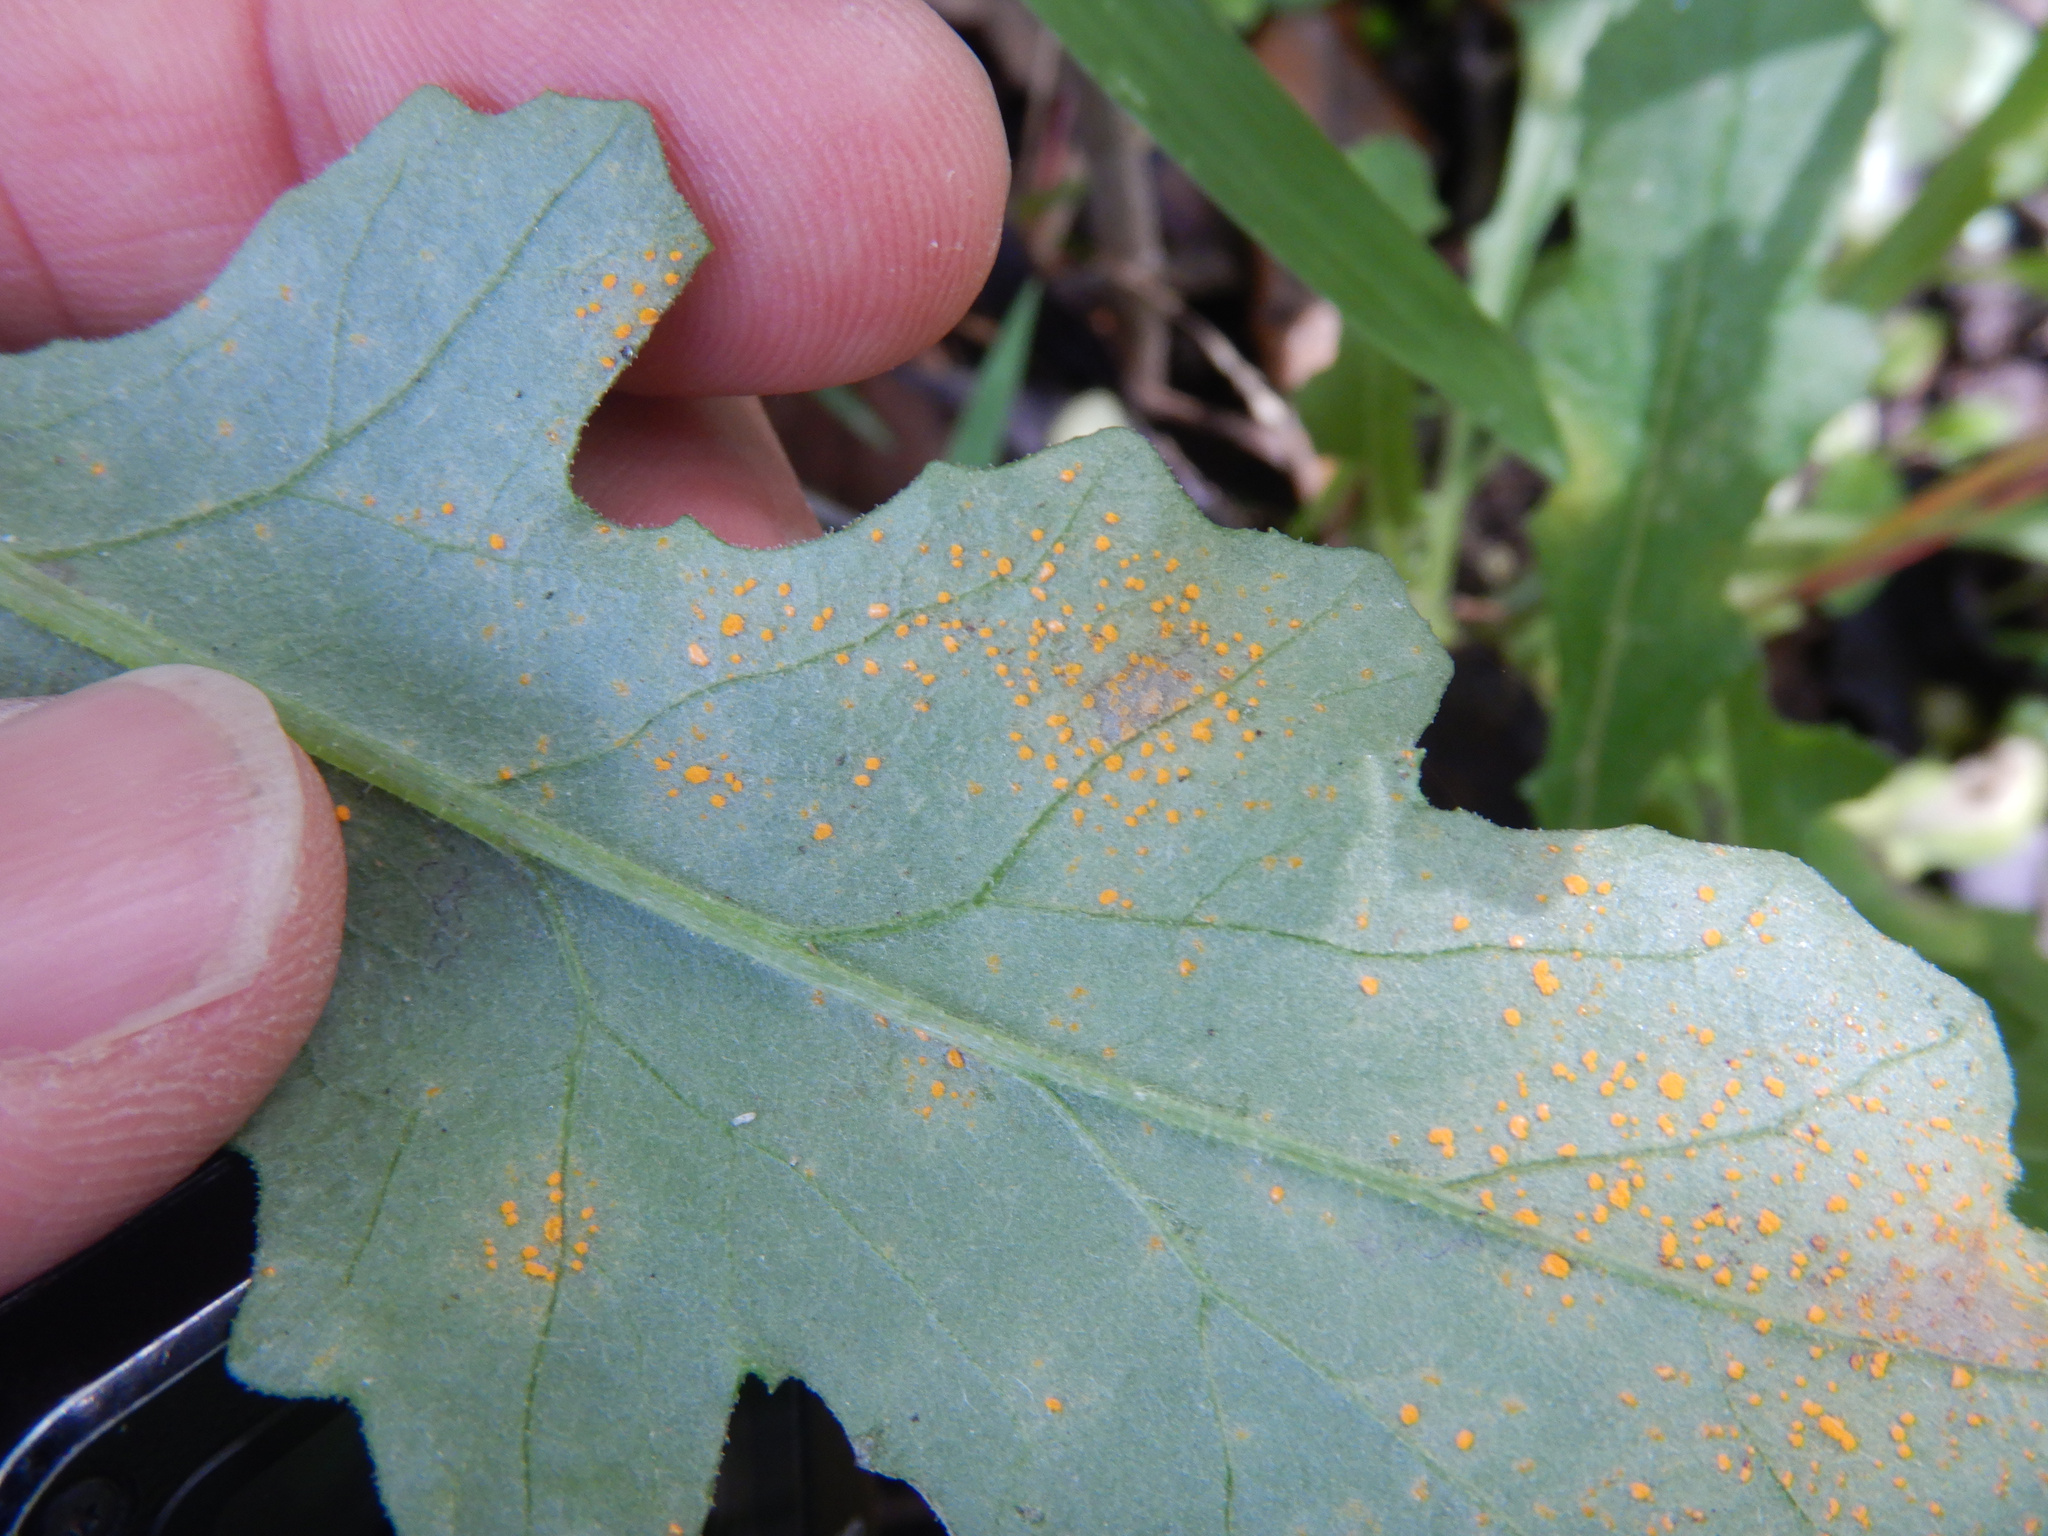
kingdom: Fungi
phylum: Basidiomycota
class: Pucciniomycetes
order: Pucciniales
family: Coleosporiaceae
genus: Coleosporium
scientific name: Coleosporium tussilaginis
